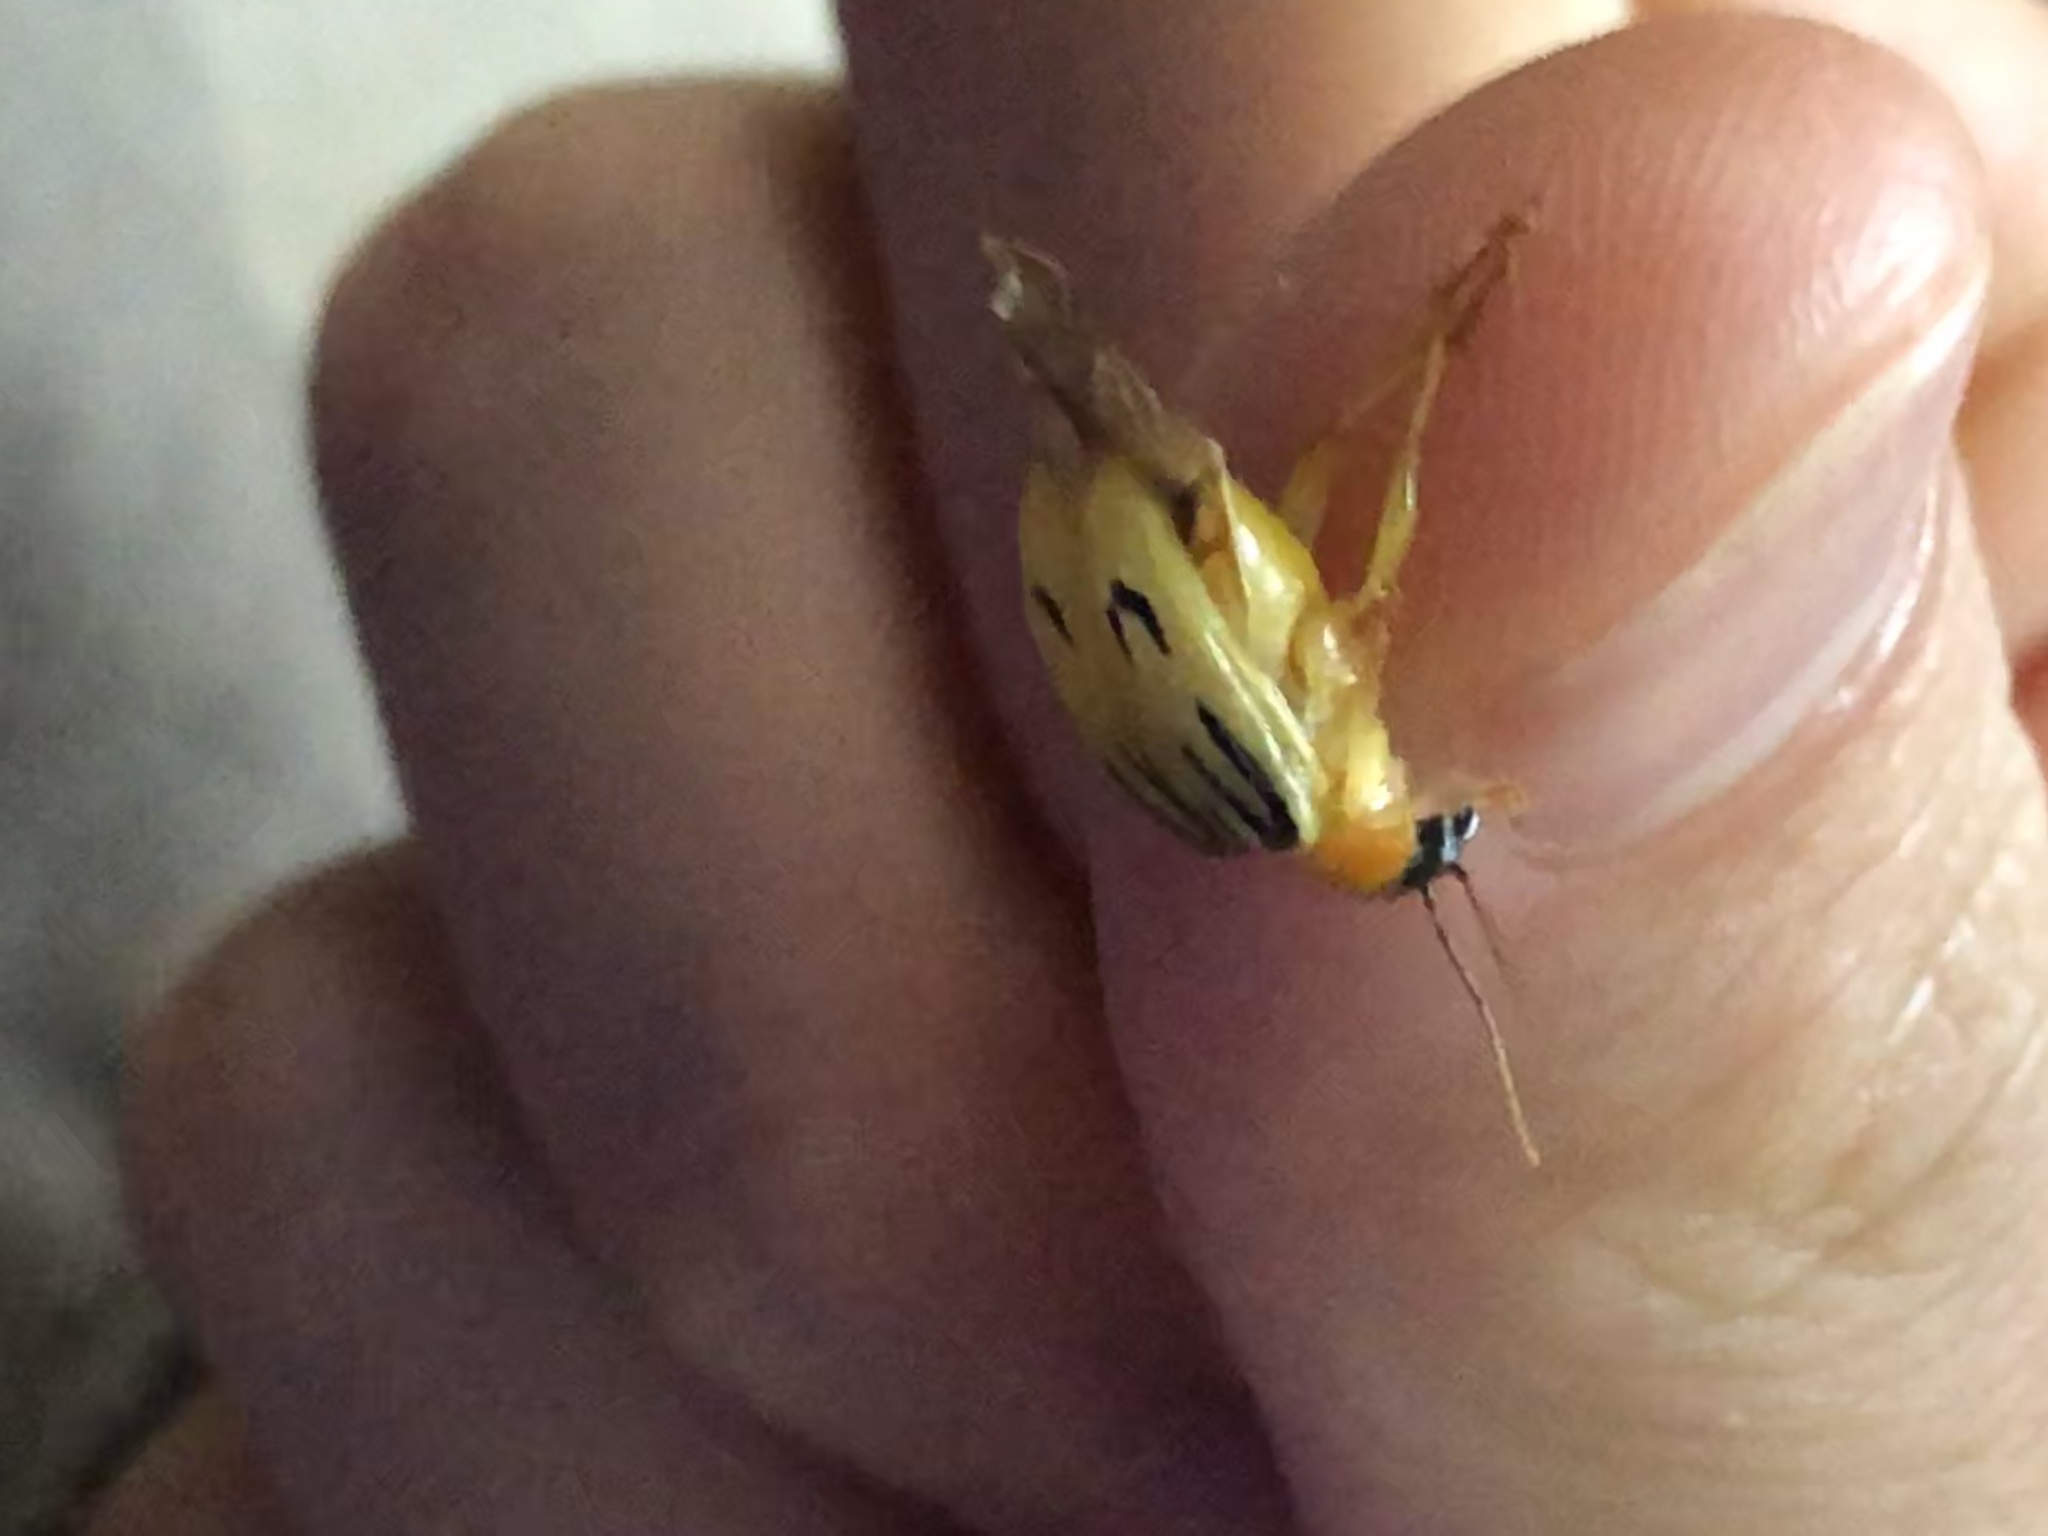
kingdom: Animalia
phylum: Arthropoda
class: Insecta
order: Coleoptera
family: Chrysomelidae
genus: Metaxyonycha
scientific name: Metaxyonycha
